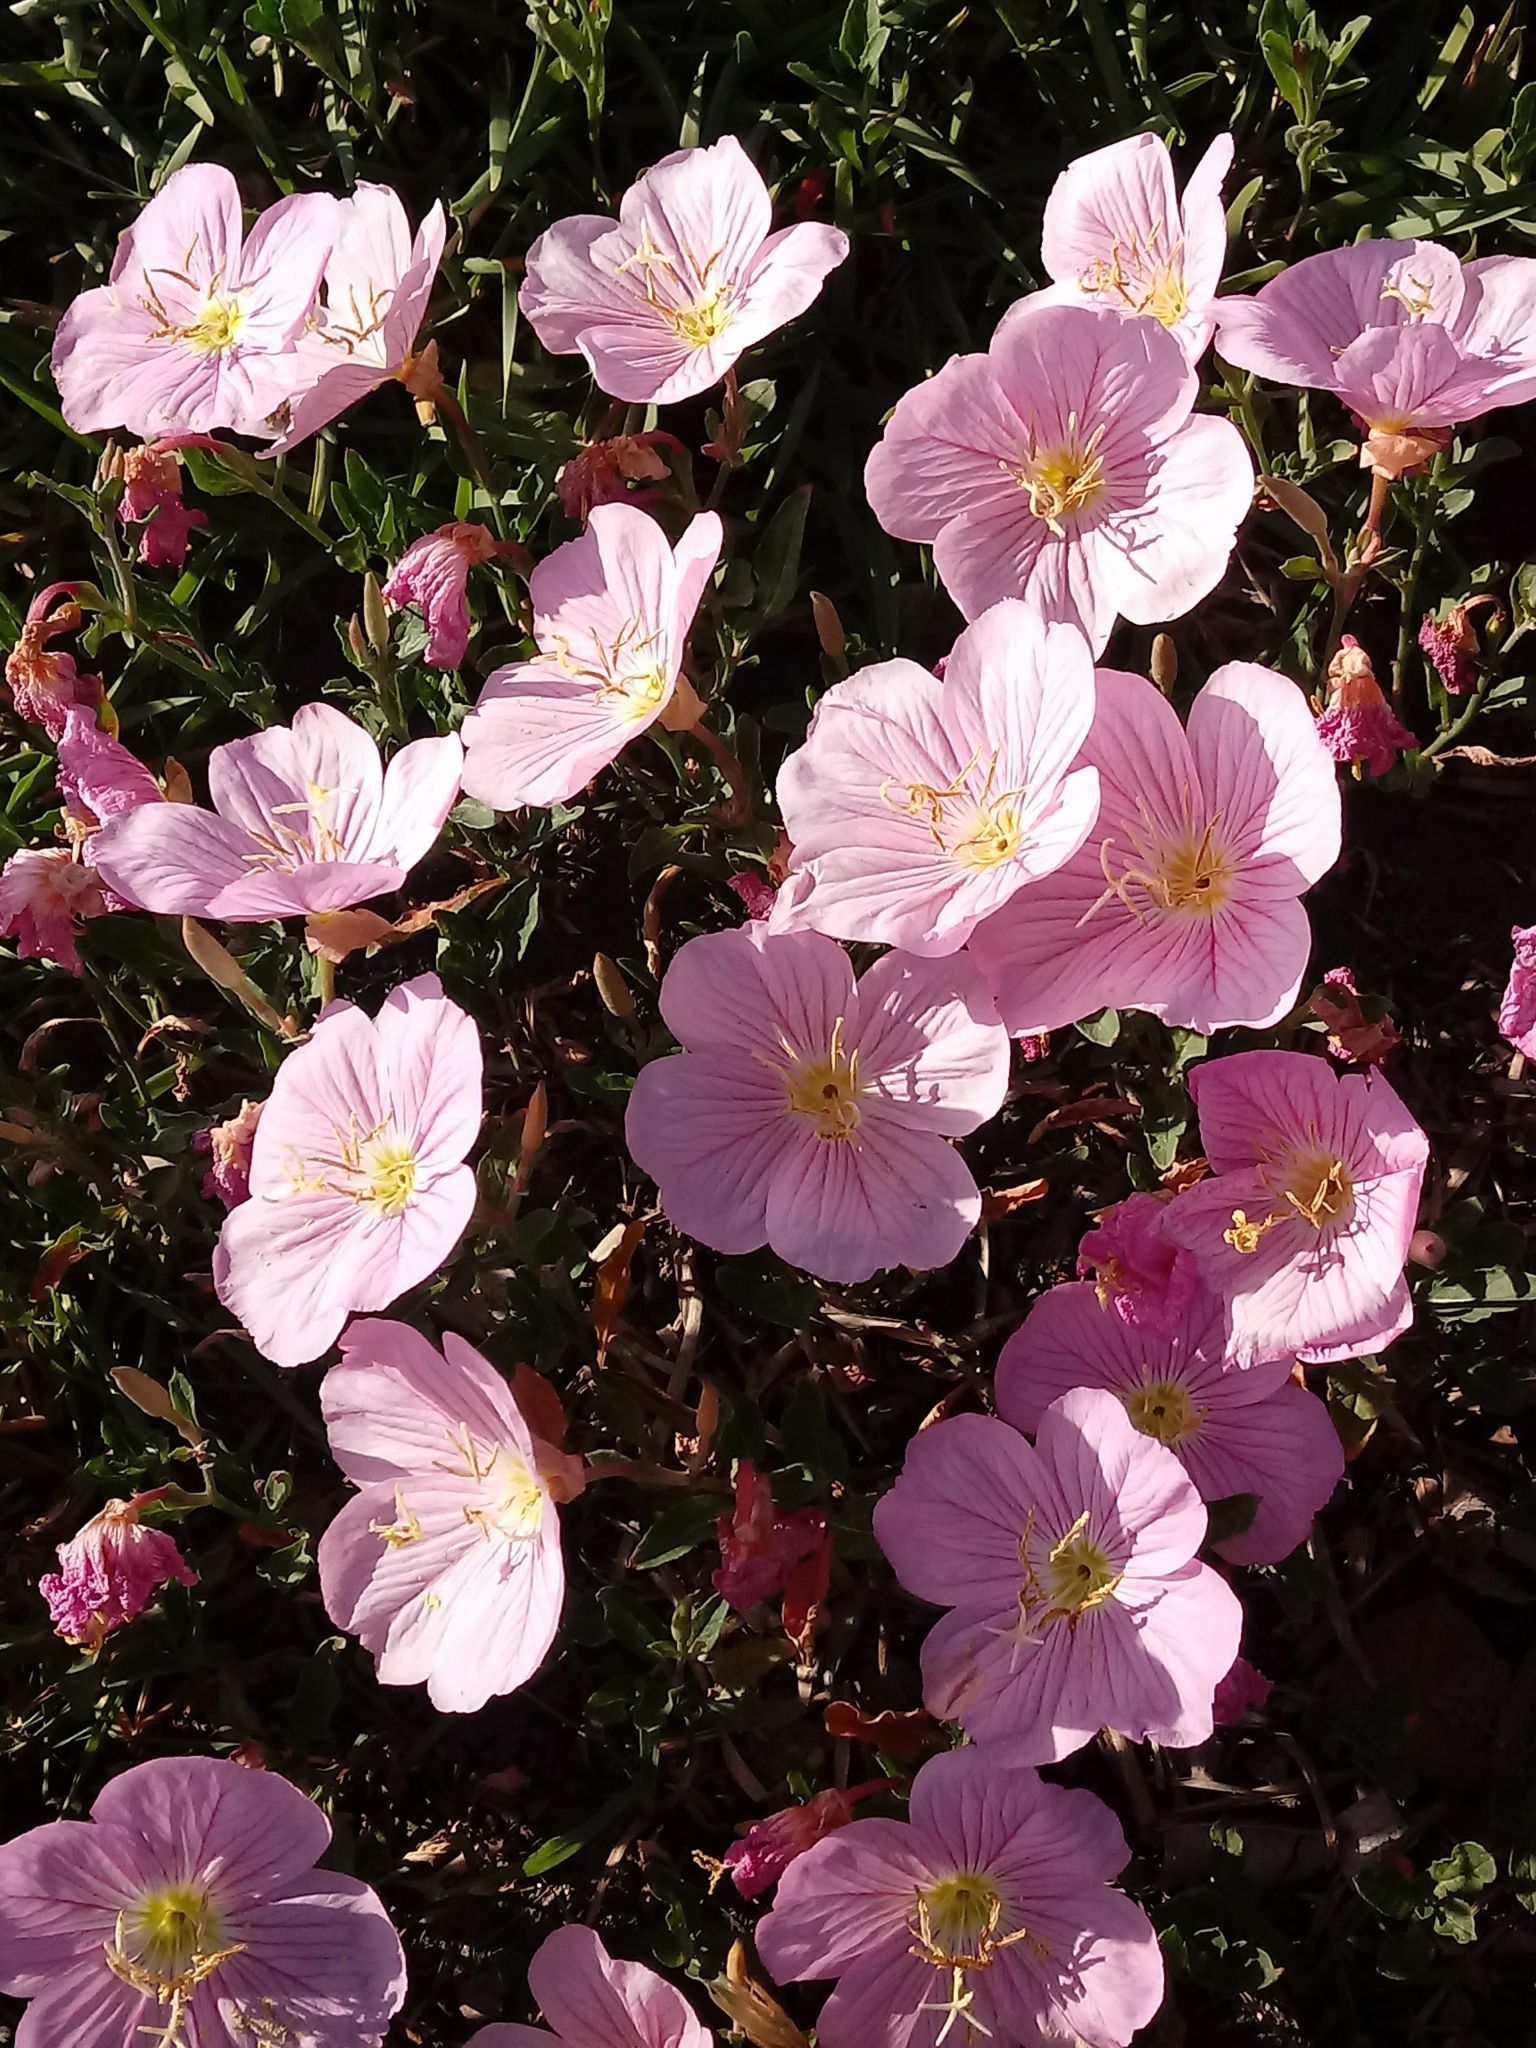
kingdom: Plantae
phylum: Tracheophyta
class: Magnoliopsida
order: Myrtales
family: Onagraceae
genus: Oenothera
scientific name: Oenothera speciosa
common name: White evening-primrose
